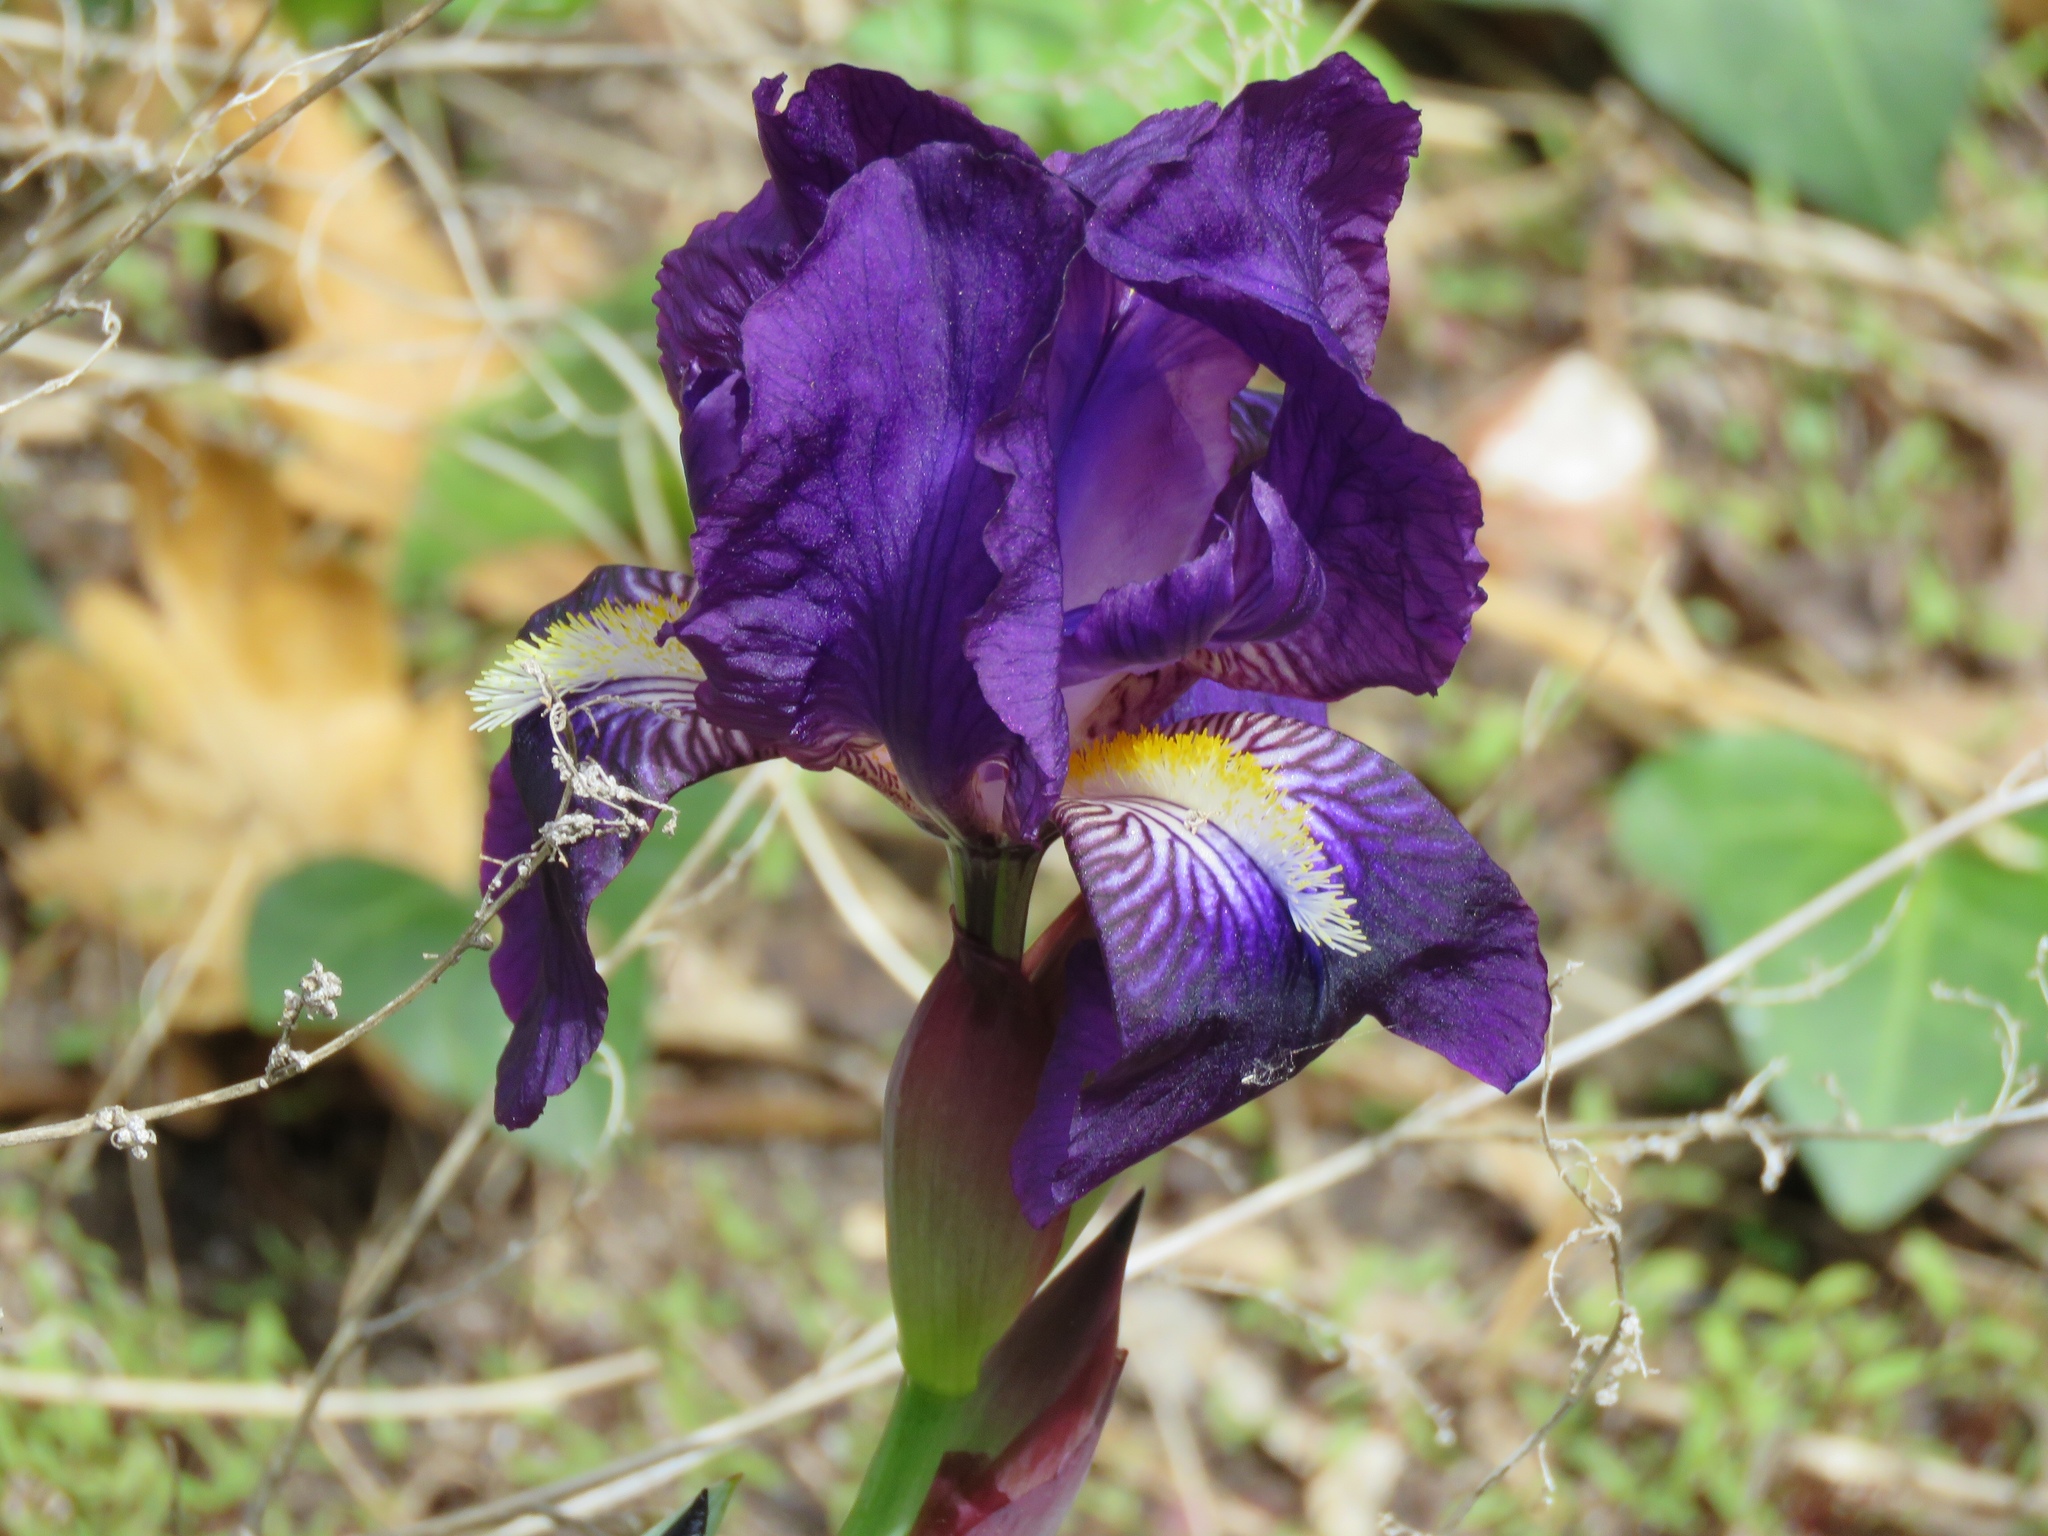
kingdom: Plantae
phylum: Tracheophyta
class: Liliopsida
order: Asparagales
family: Iridaceae
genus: Iris
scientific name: Iris germanica
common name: German iris
